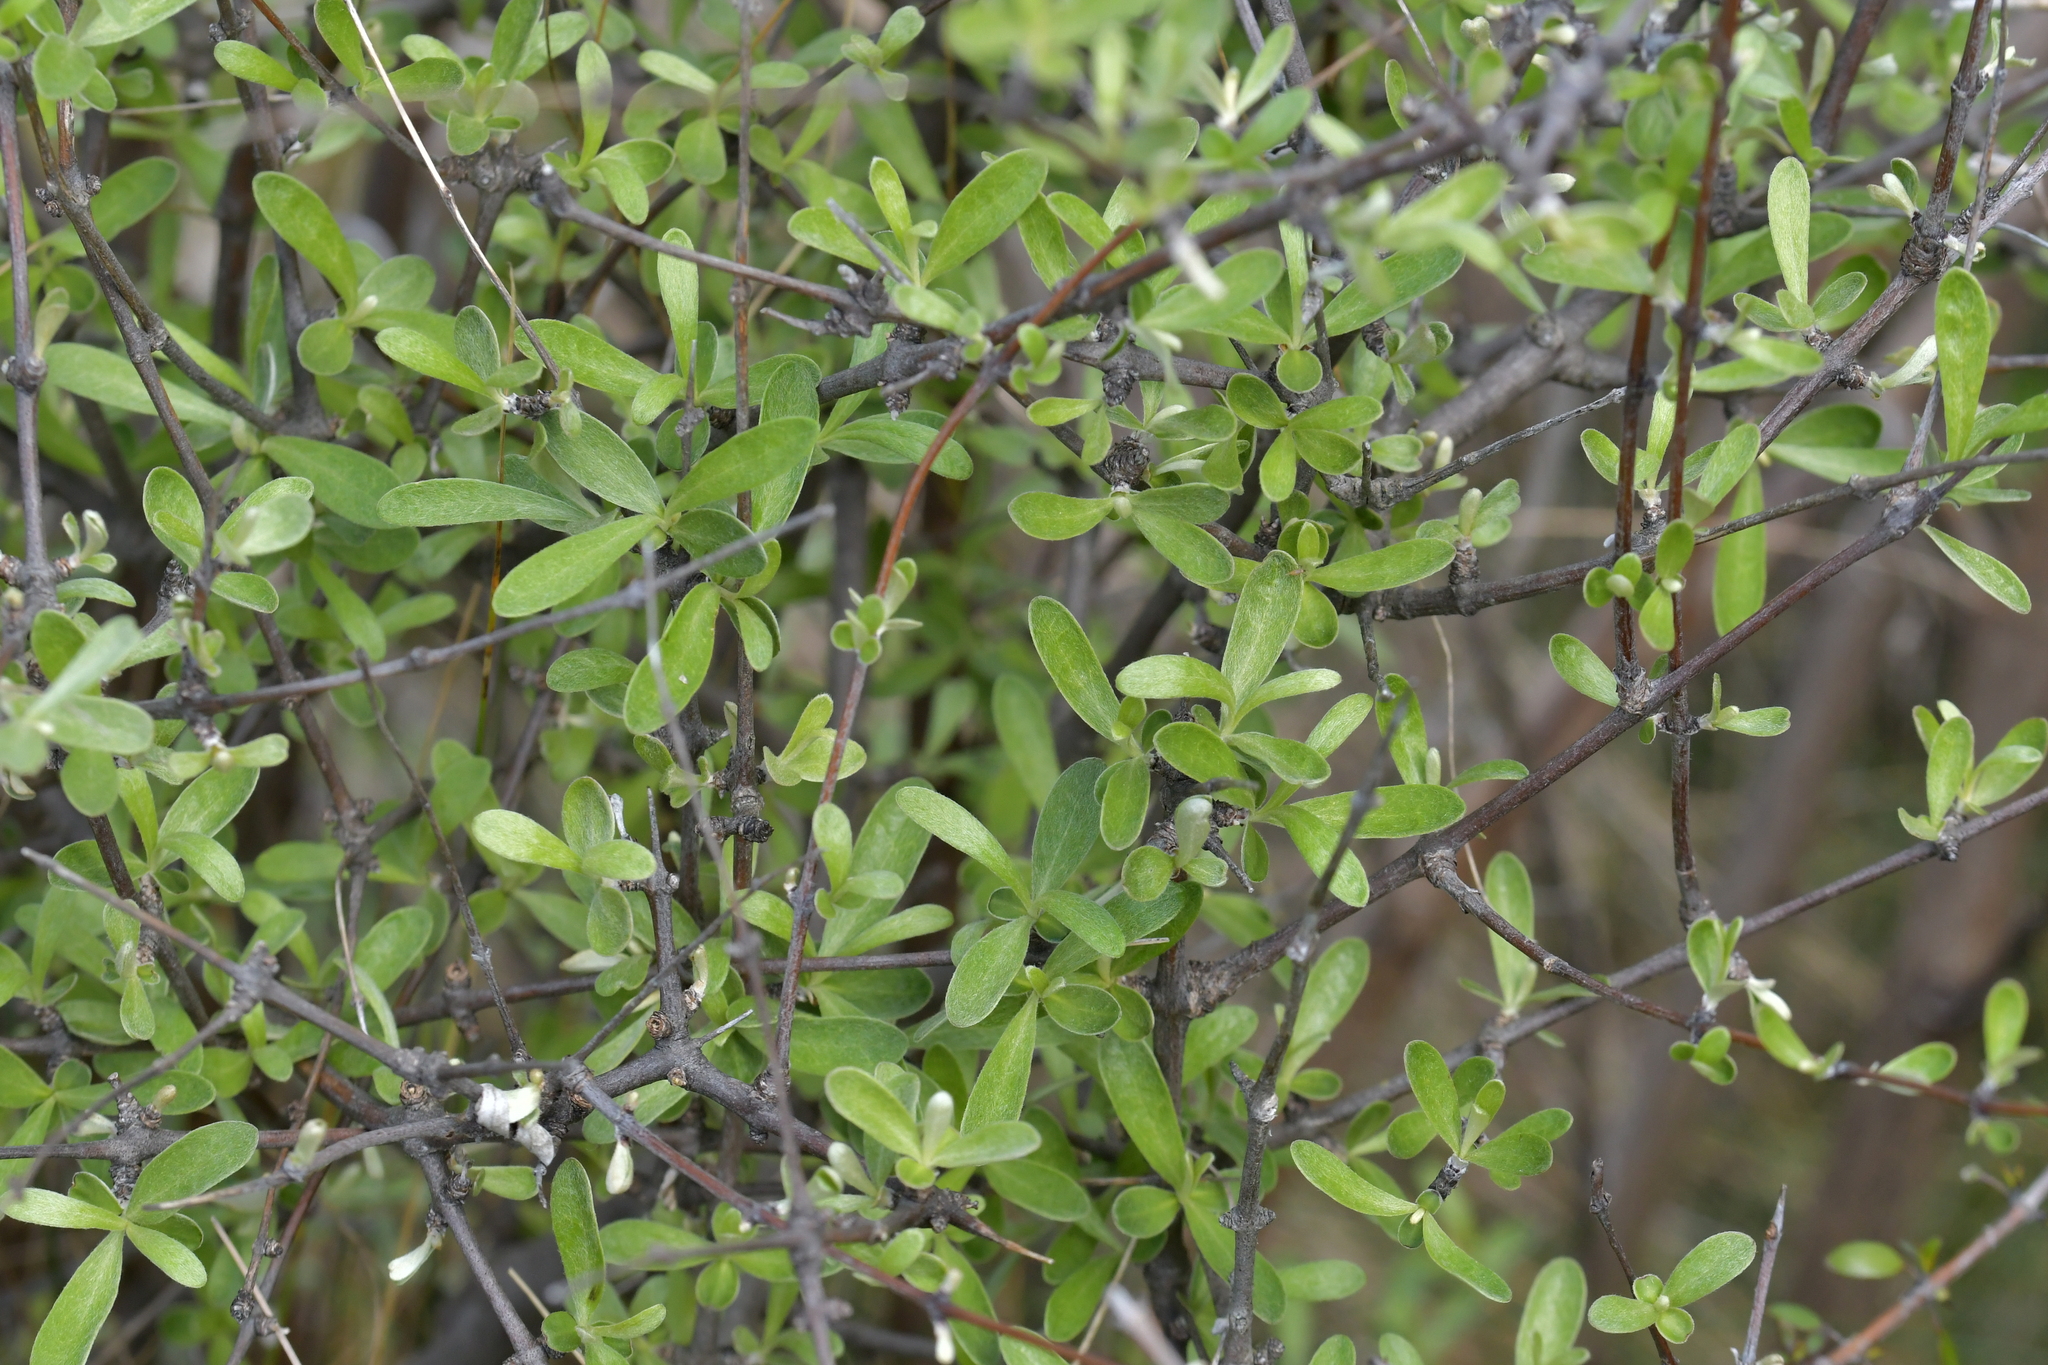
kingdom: Plantae
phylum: Tracheophyta
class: Magnoliopsida
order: Asterales
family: Asteraceae
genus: Olearia
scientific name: Olearia odorata
